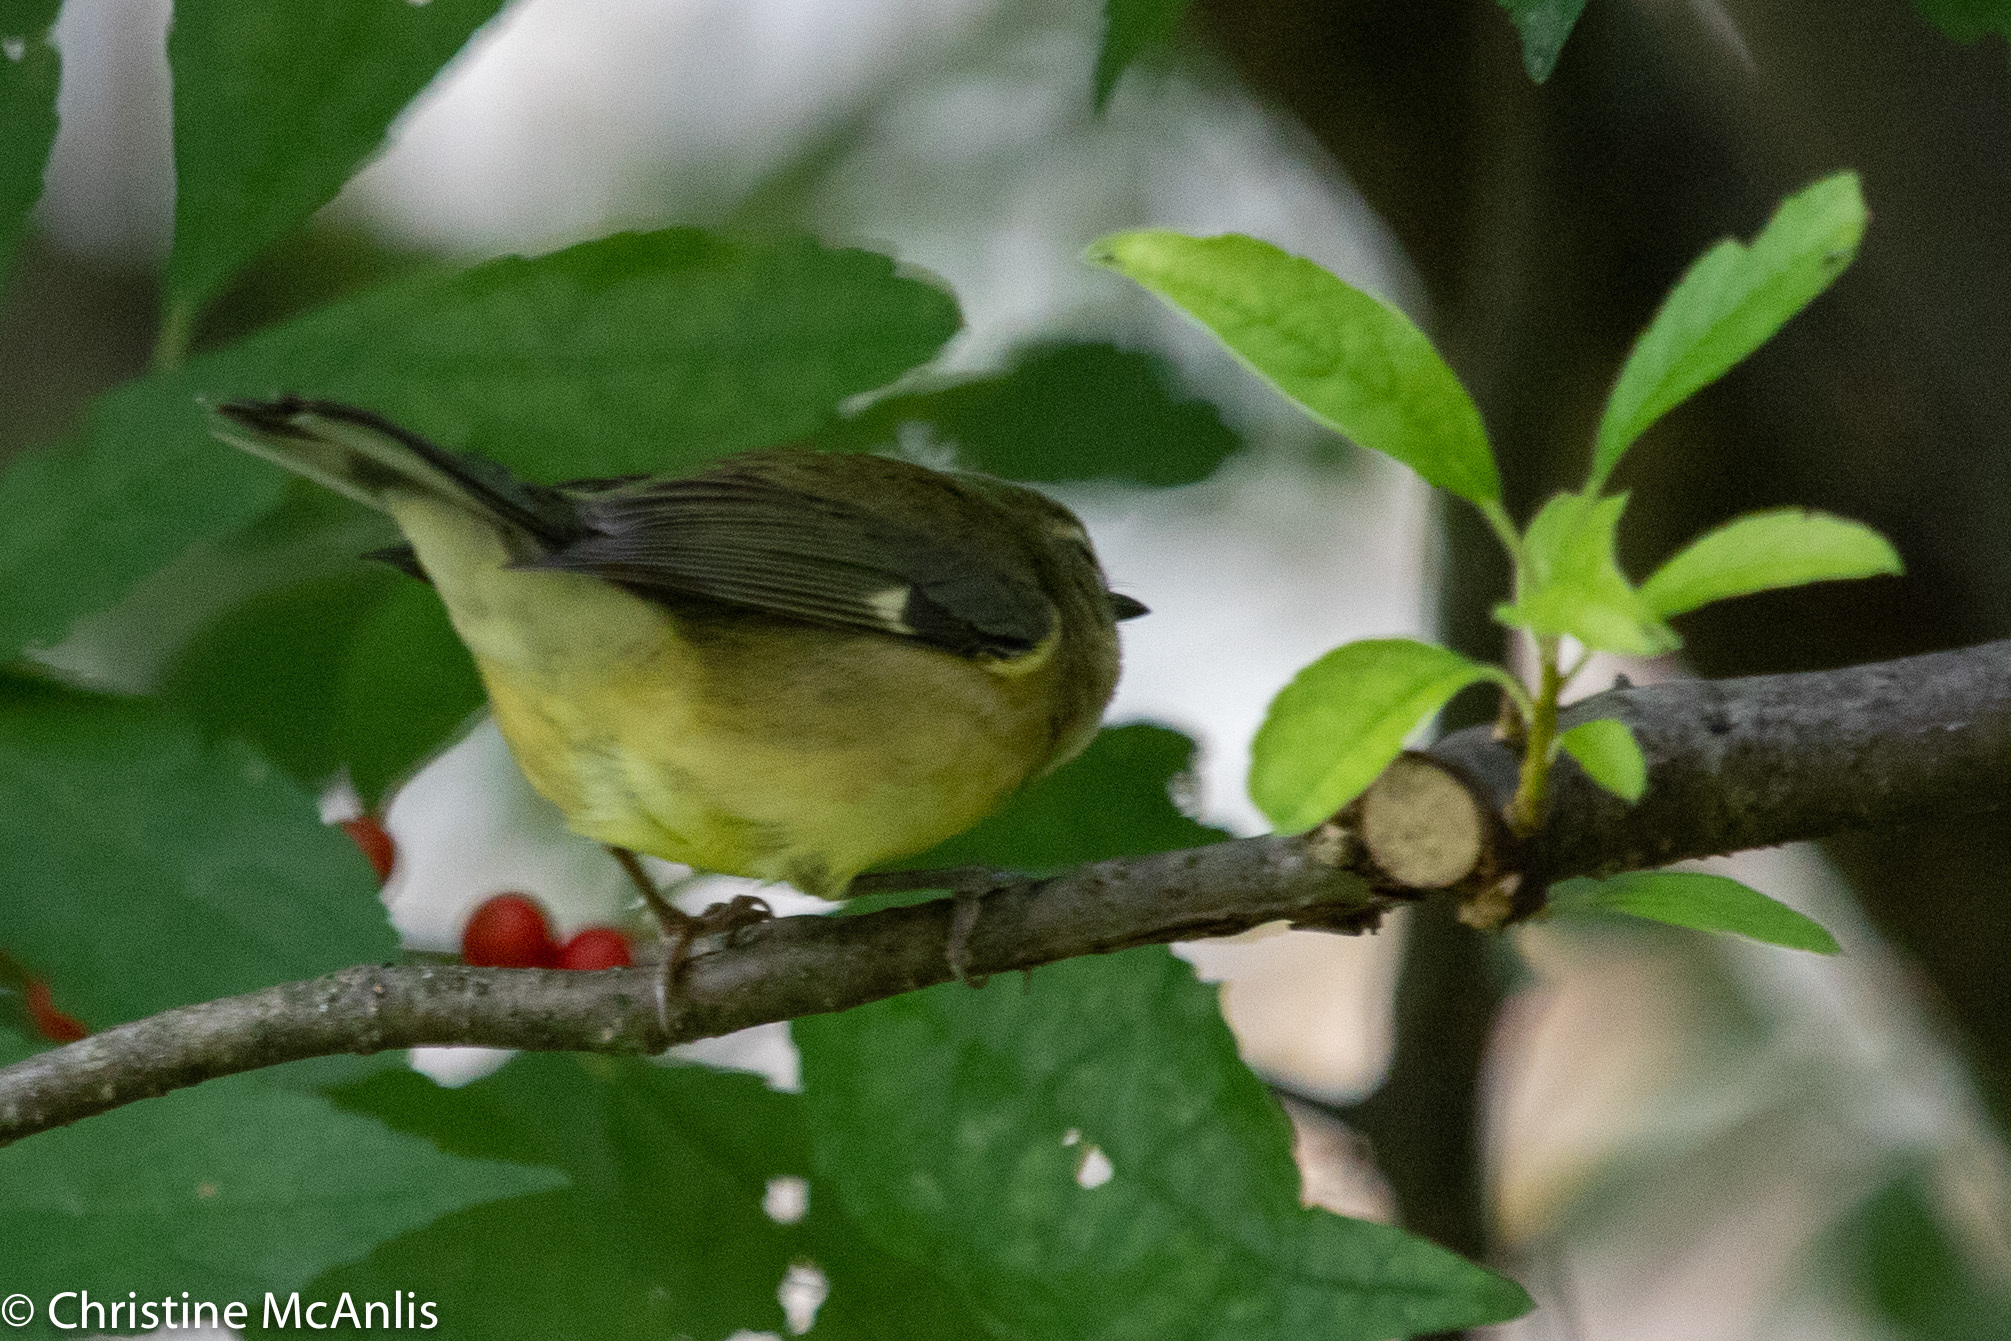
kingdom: Animalia
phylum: Chordata
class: Aves
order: Passeriformes
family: Parulidae
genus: Setophaga
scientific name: Setophaga caerulescens
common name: Black-throated blue warbler
